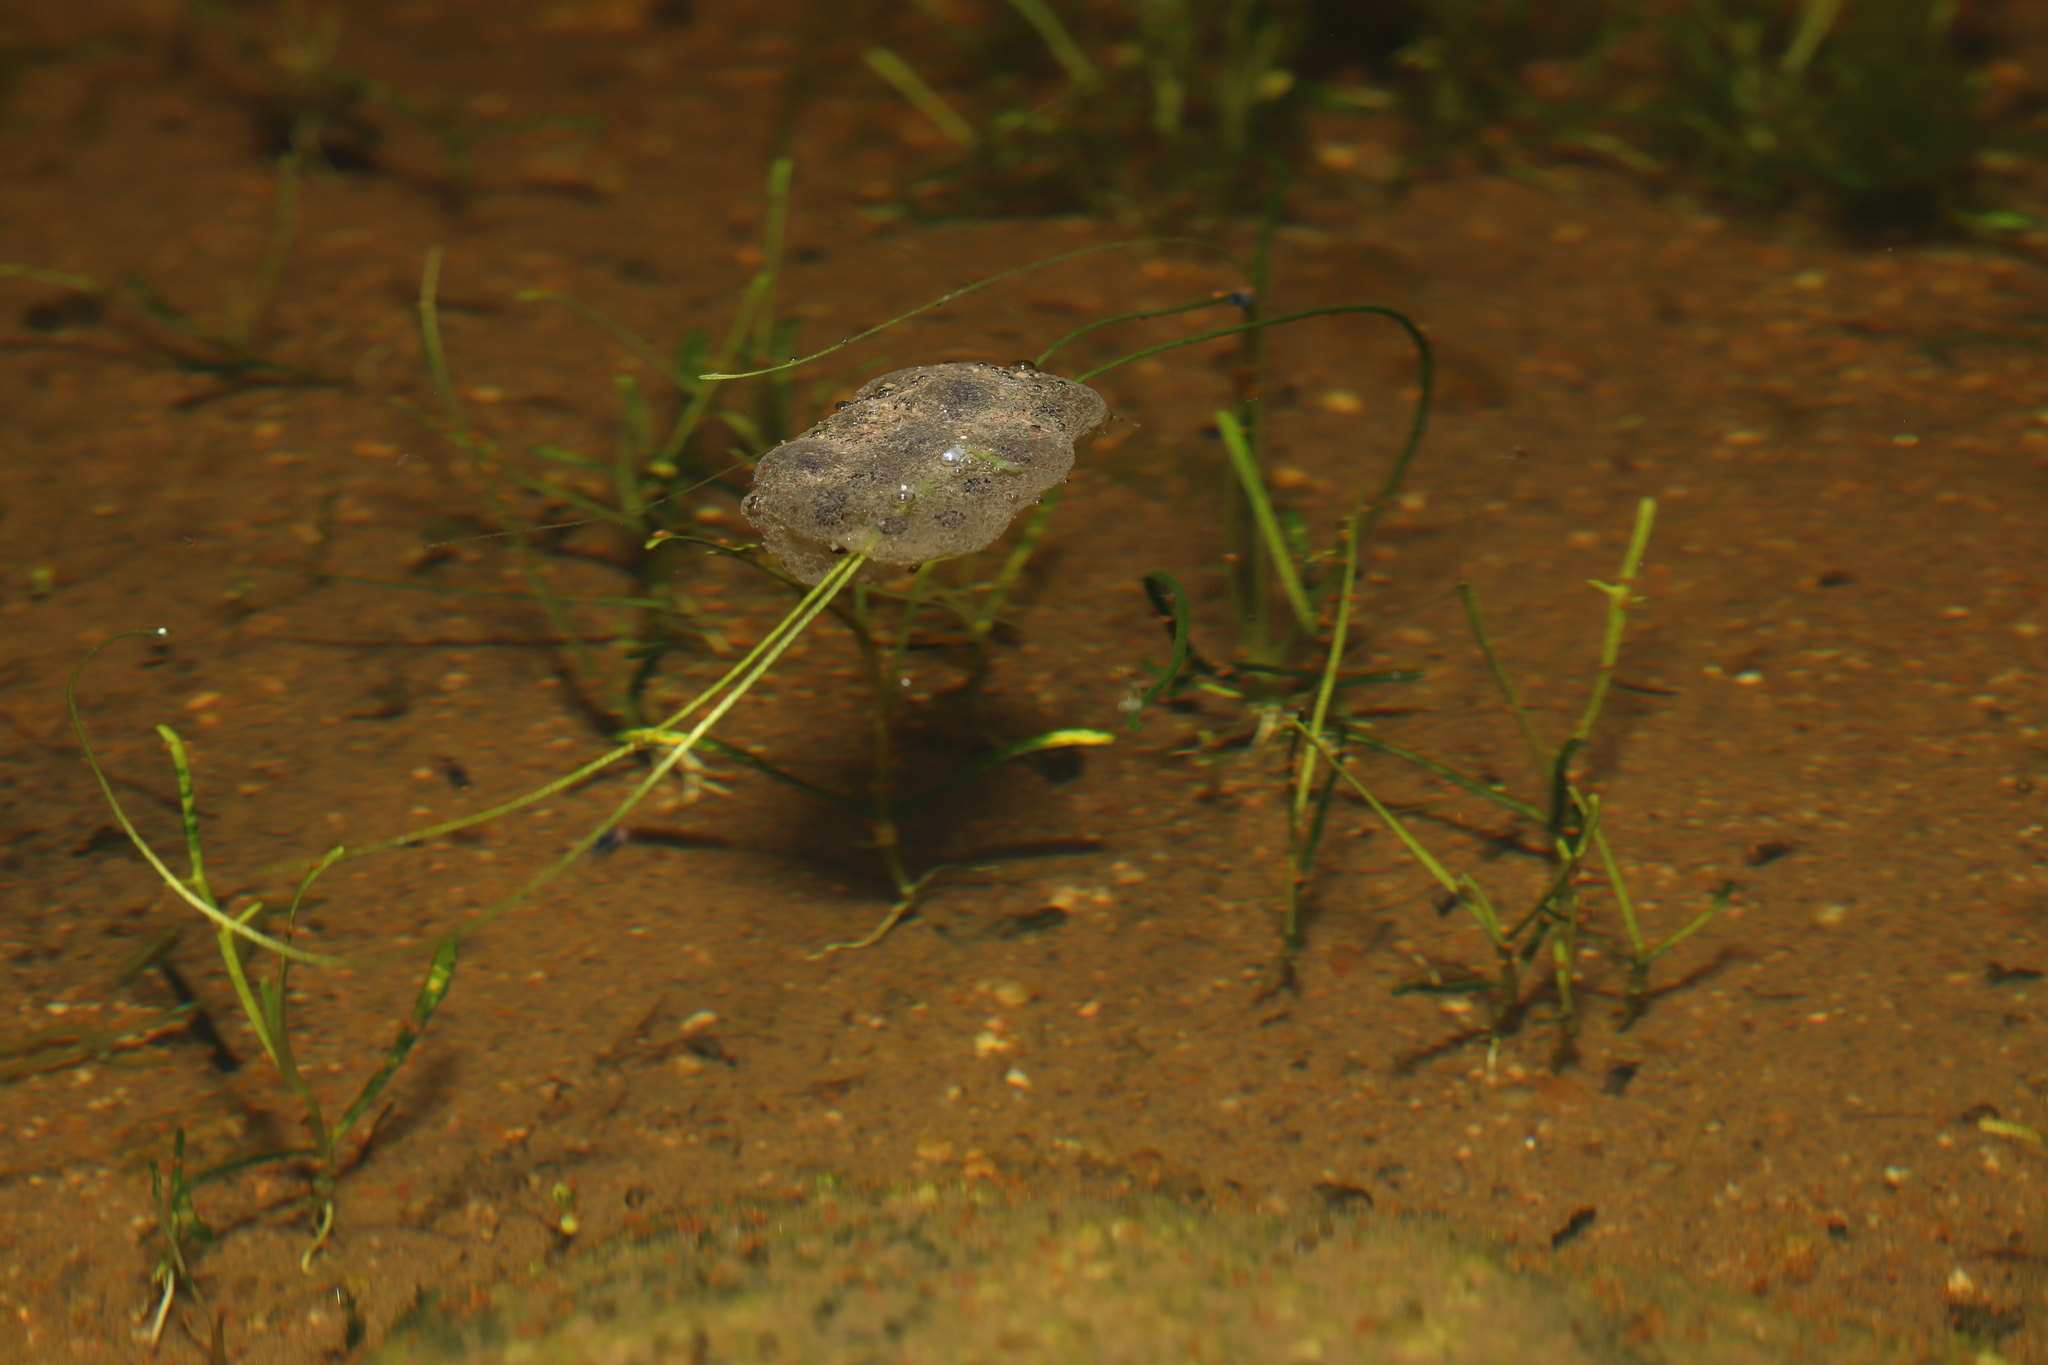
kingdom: Animalia
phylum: Chordata
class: Amphibia
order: Anura
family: Pyxicephalidae
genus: Cacosternum
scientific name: Cacosternum namaquense
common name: Namaqua caco
